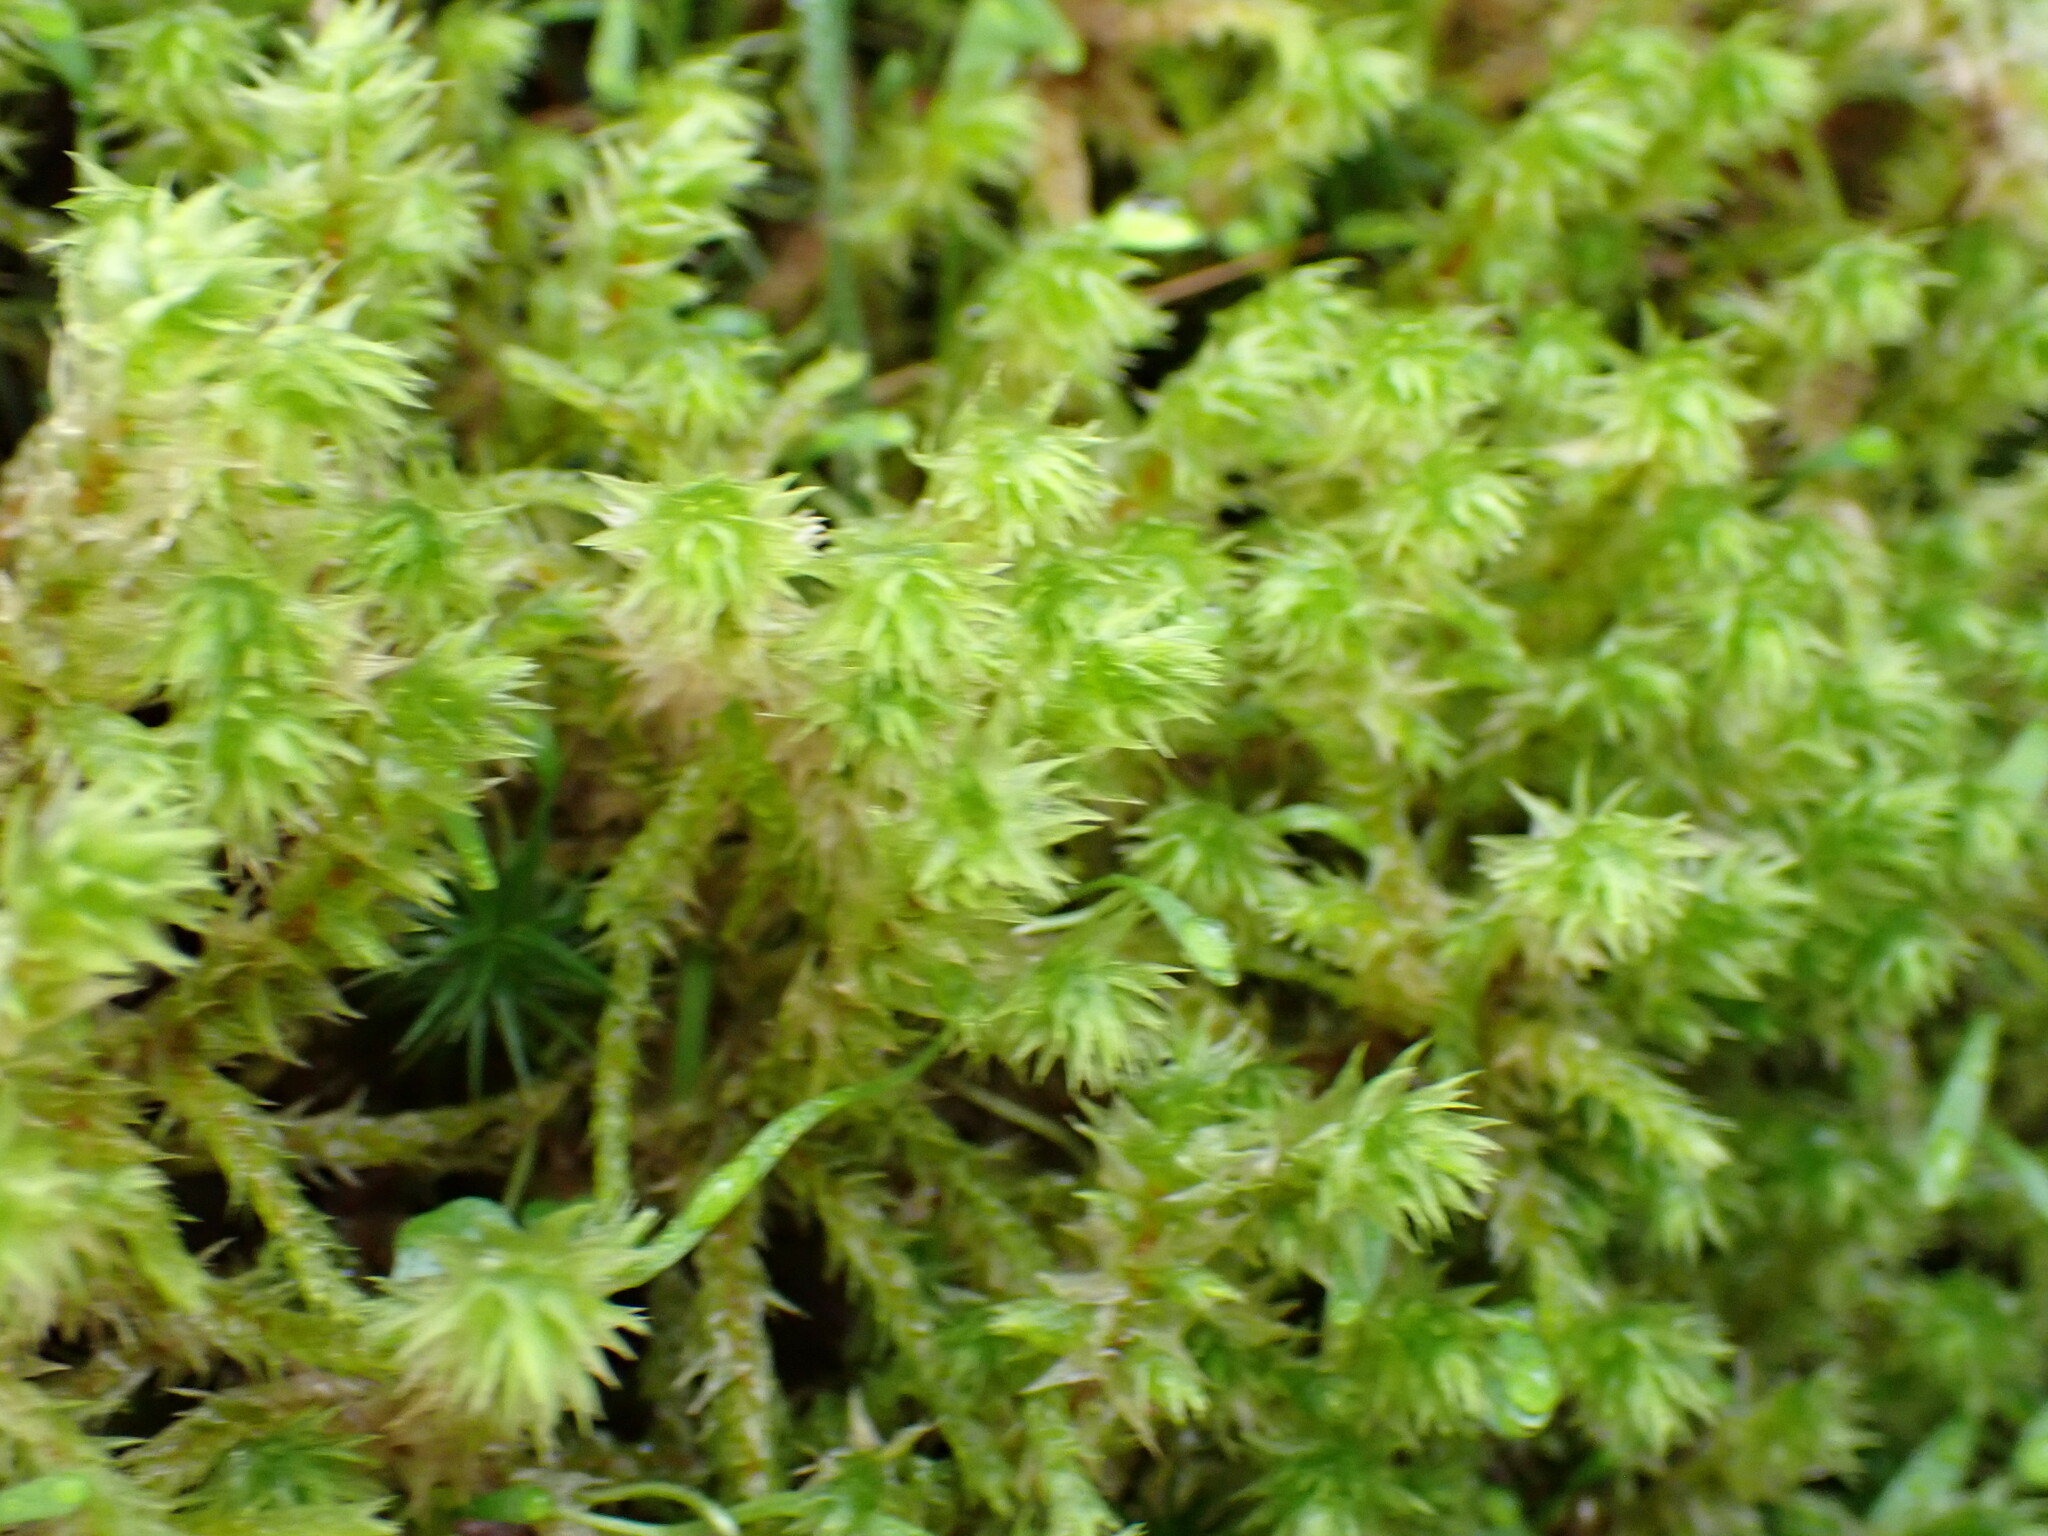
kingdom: Plantae
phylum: Bryophyta
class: Bryopsida
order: Hypnales
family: Hylocomiaceae
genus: Hylocomiadelphus
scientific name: Hylocomiadelphus triquetrus
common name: Rough goose neck moss
